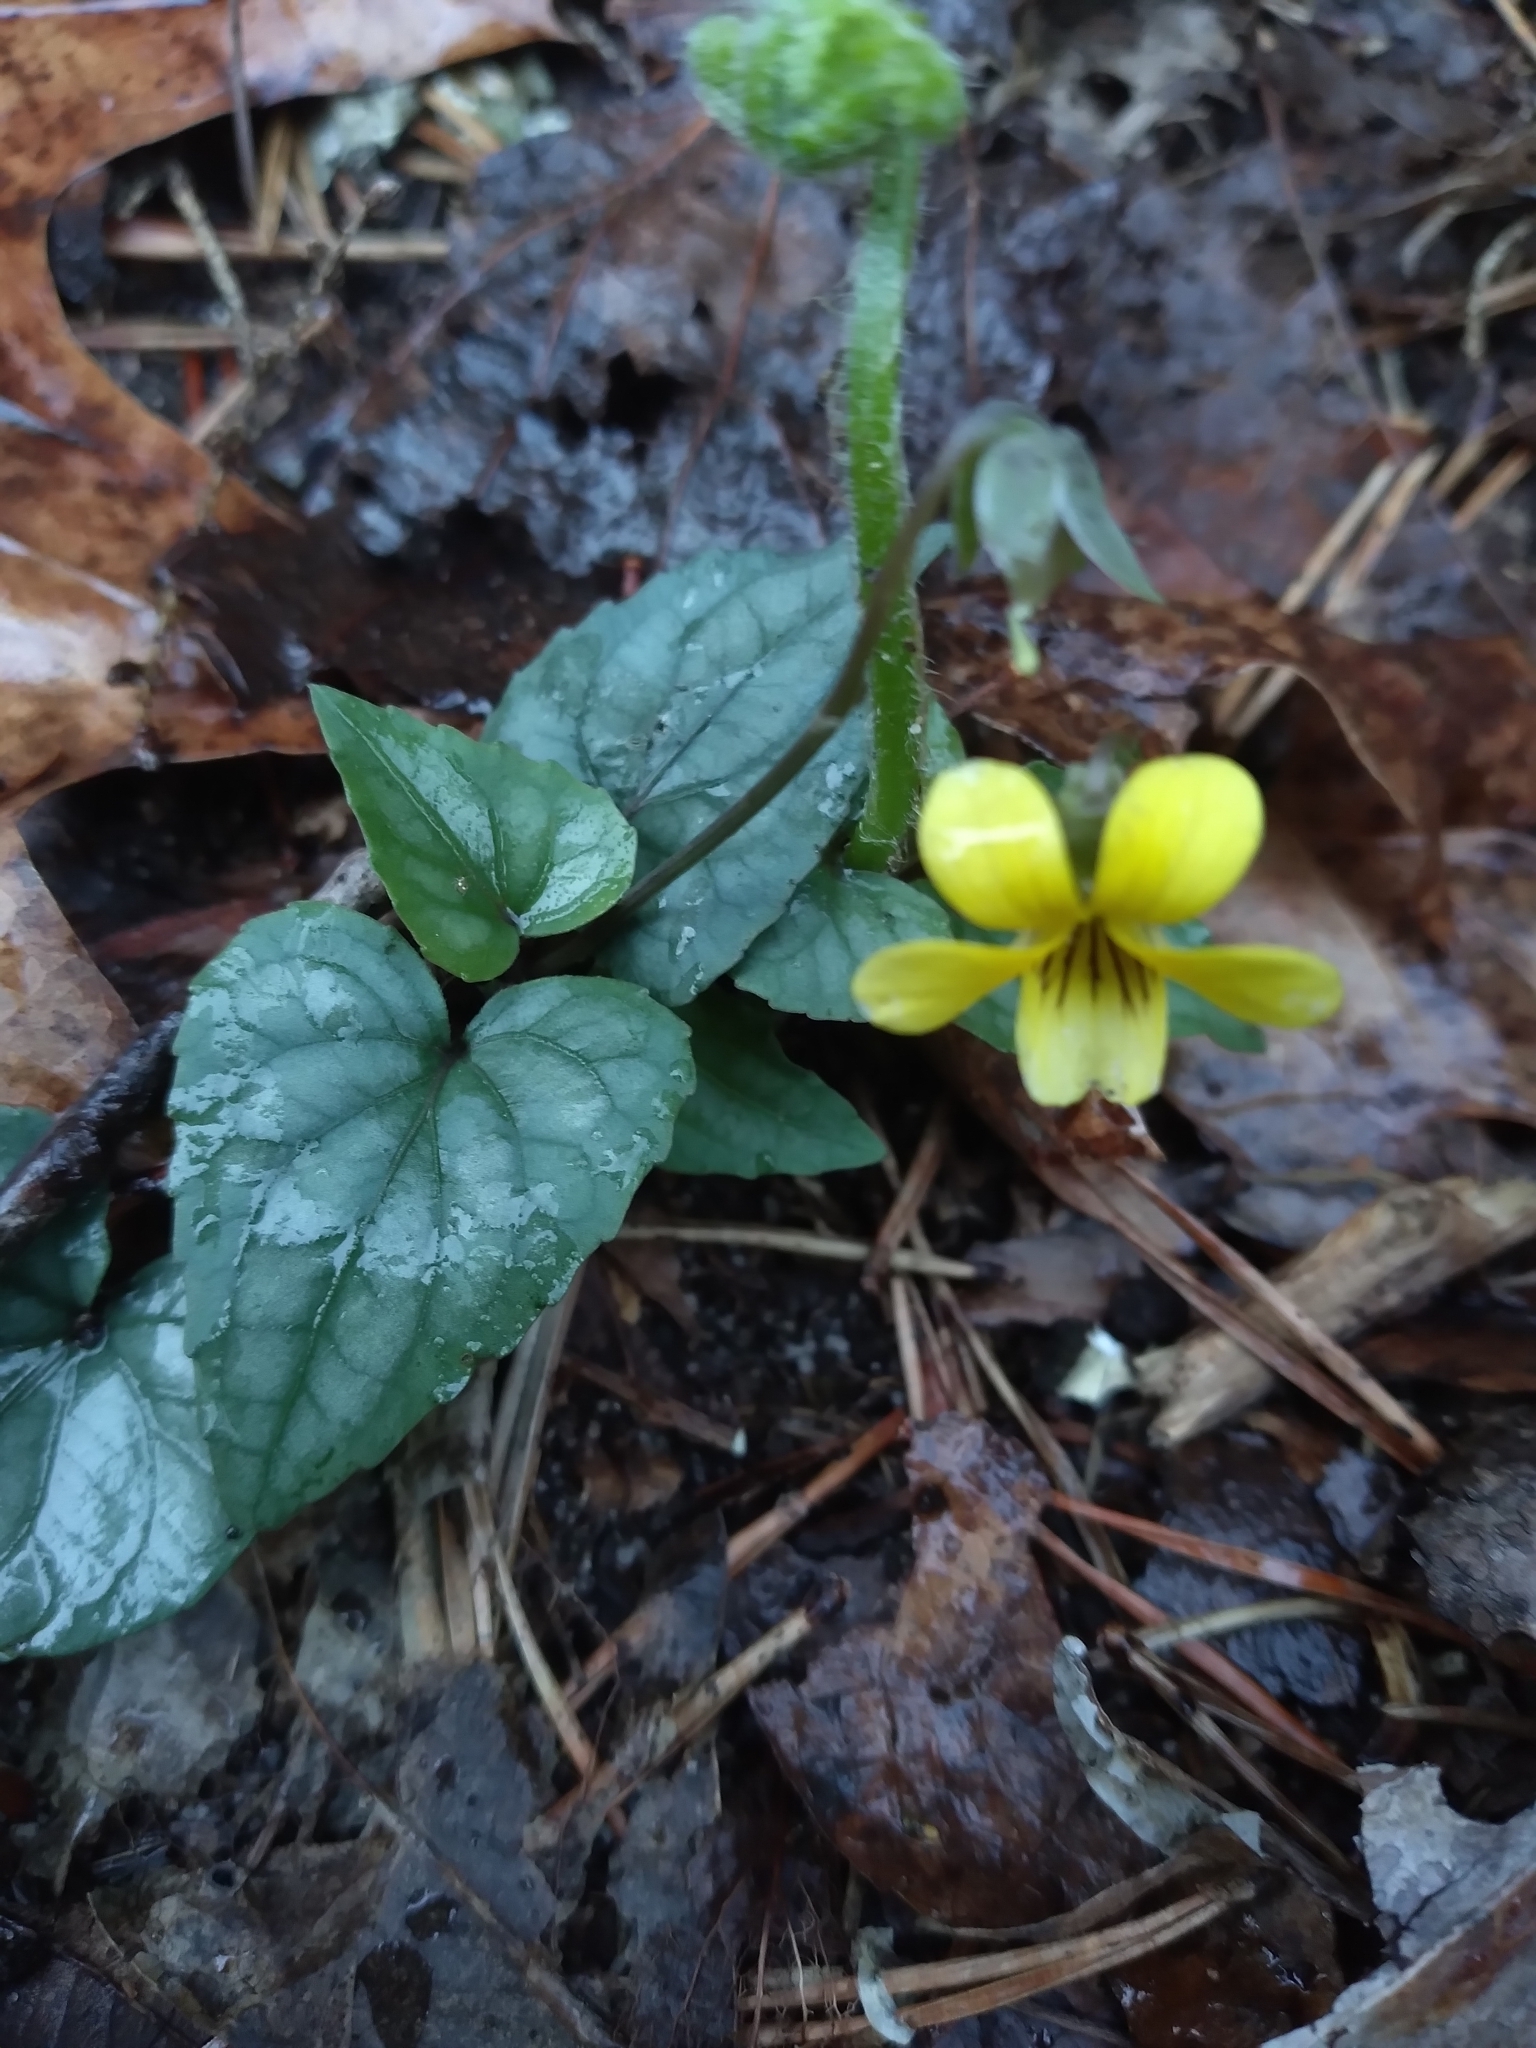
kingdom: Plantae
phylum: Tracheophyta
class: Magnoliopsida
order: Malpighiales
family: Violaceae
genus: Viola
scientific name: Viola hastata
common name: Spear-leaf violet
